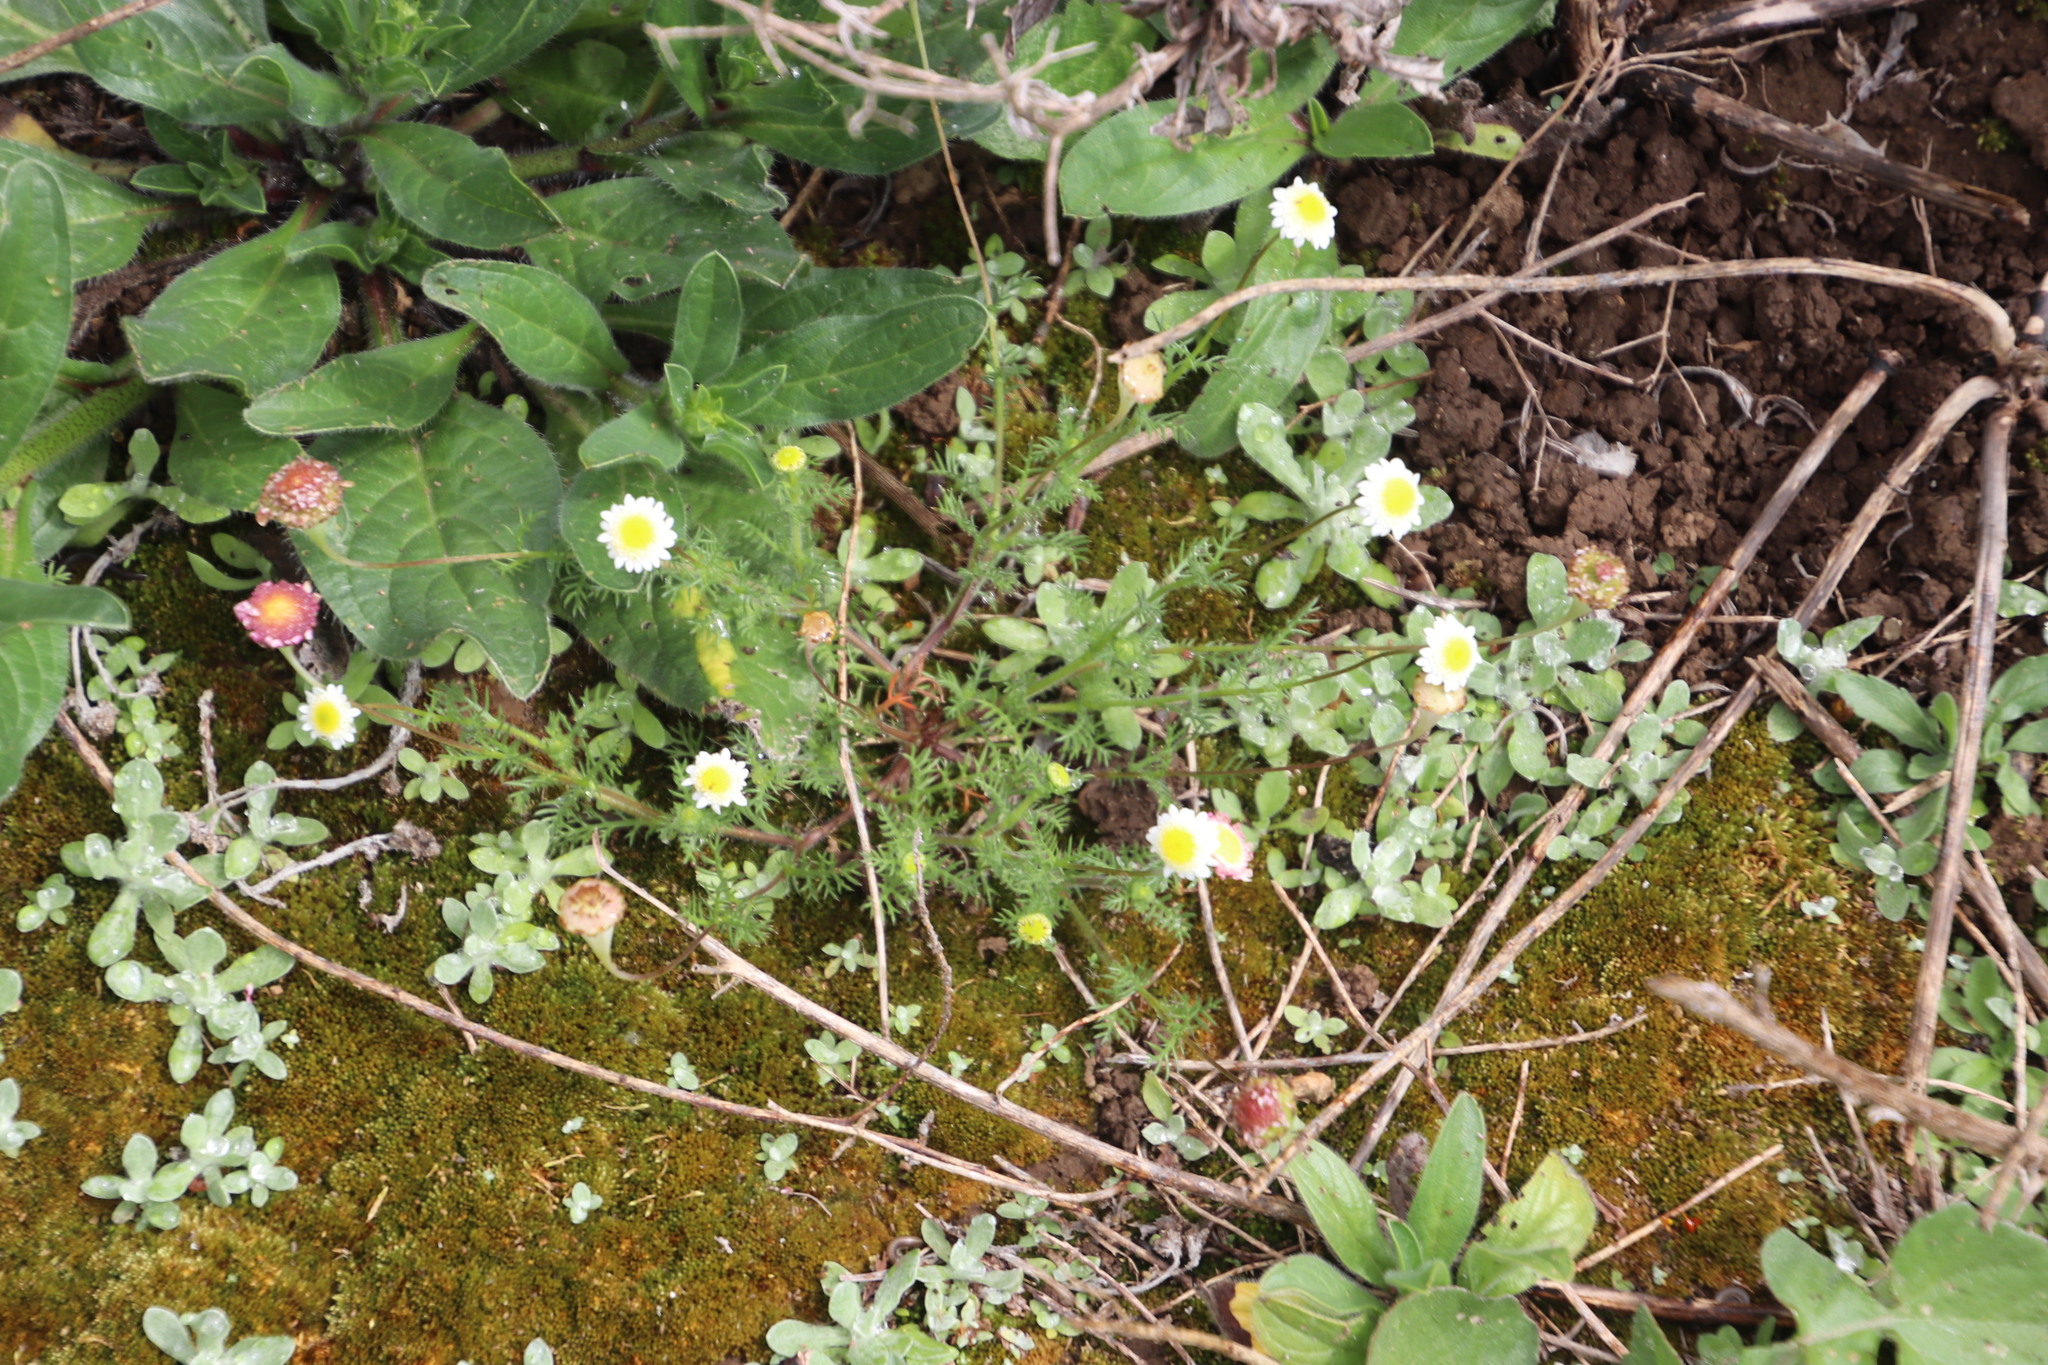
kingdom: Plantae
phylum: Tracheophyta
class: Magnoliopsida
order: Asterales
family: Asteraceae
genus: Cotula
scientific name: Cotula turbinata
